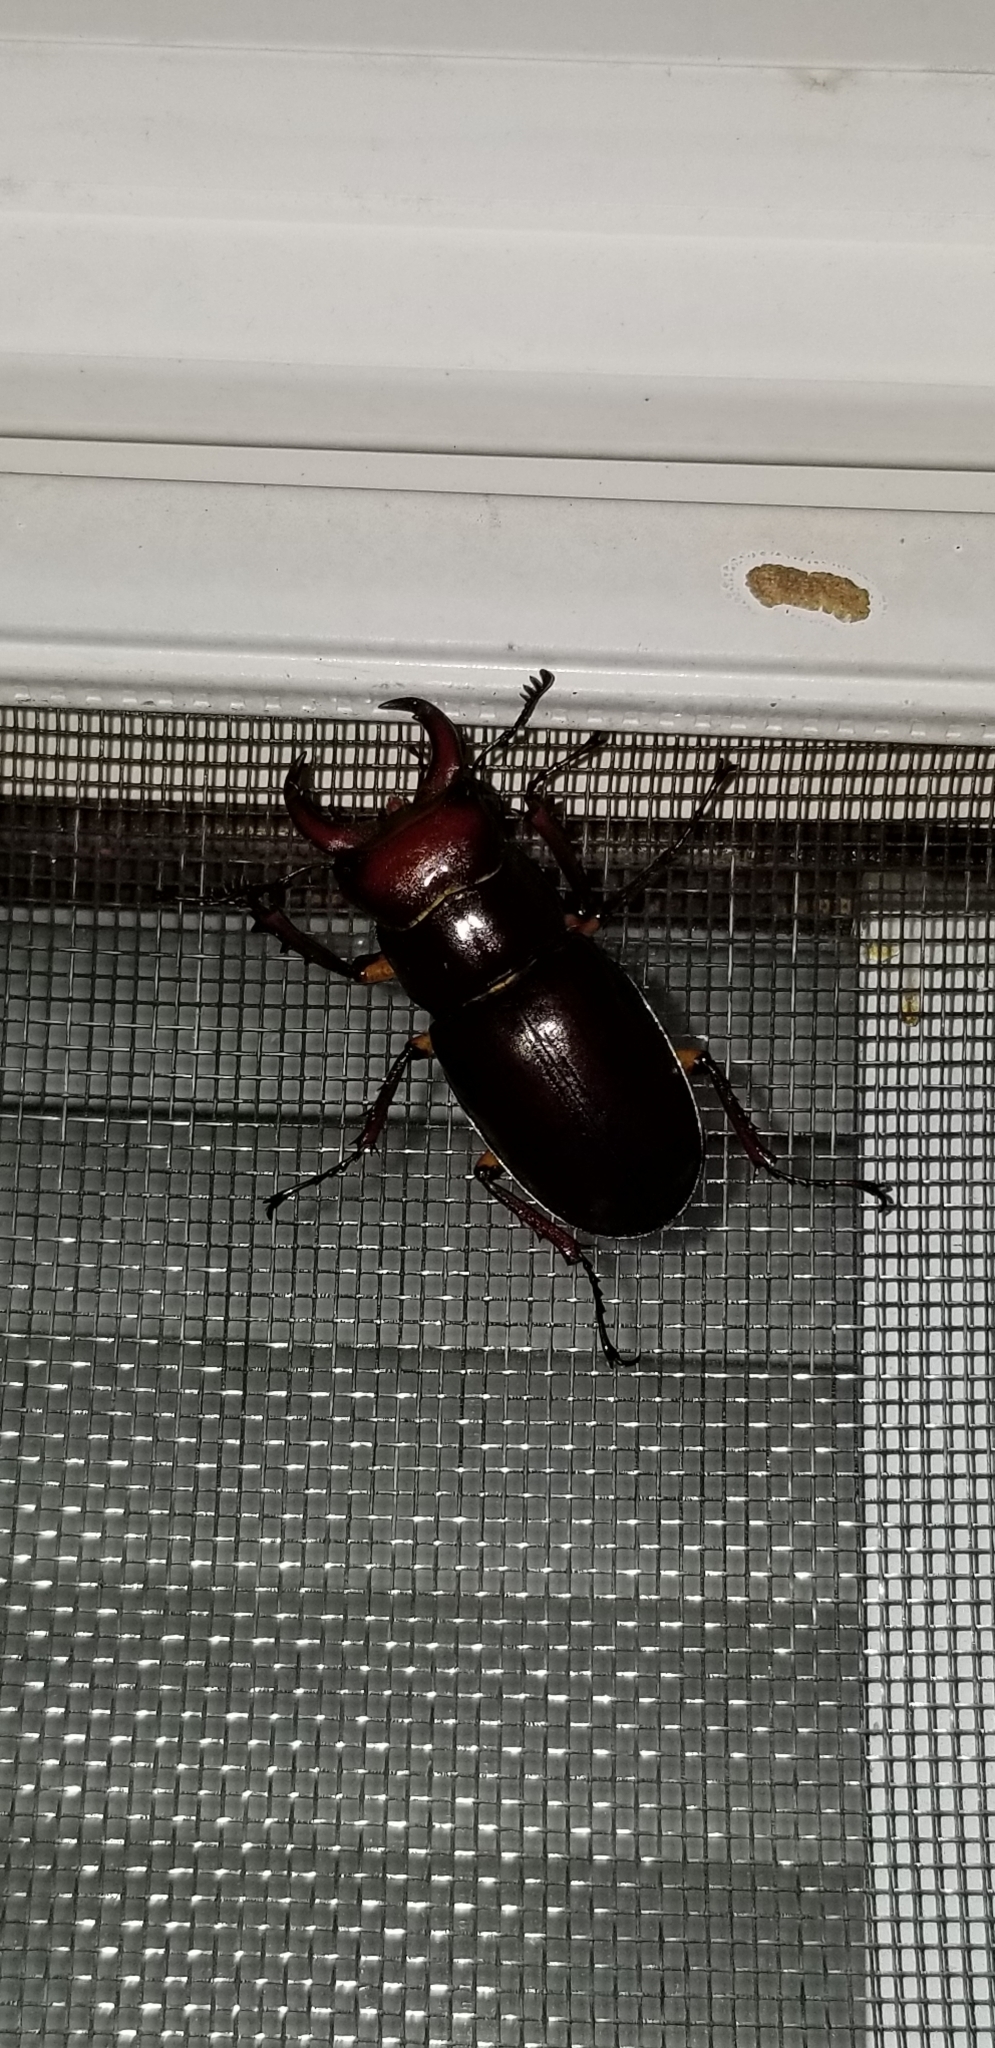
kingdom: Animalia
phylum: Arthropoda
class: Insecta
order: Coleoptera
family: Lucanidae
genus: Lucanus
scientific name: Lucanus capreolus
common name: Stag beetle
